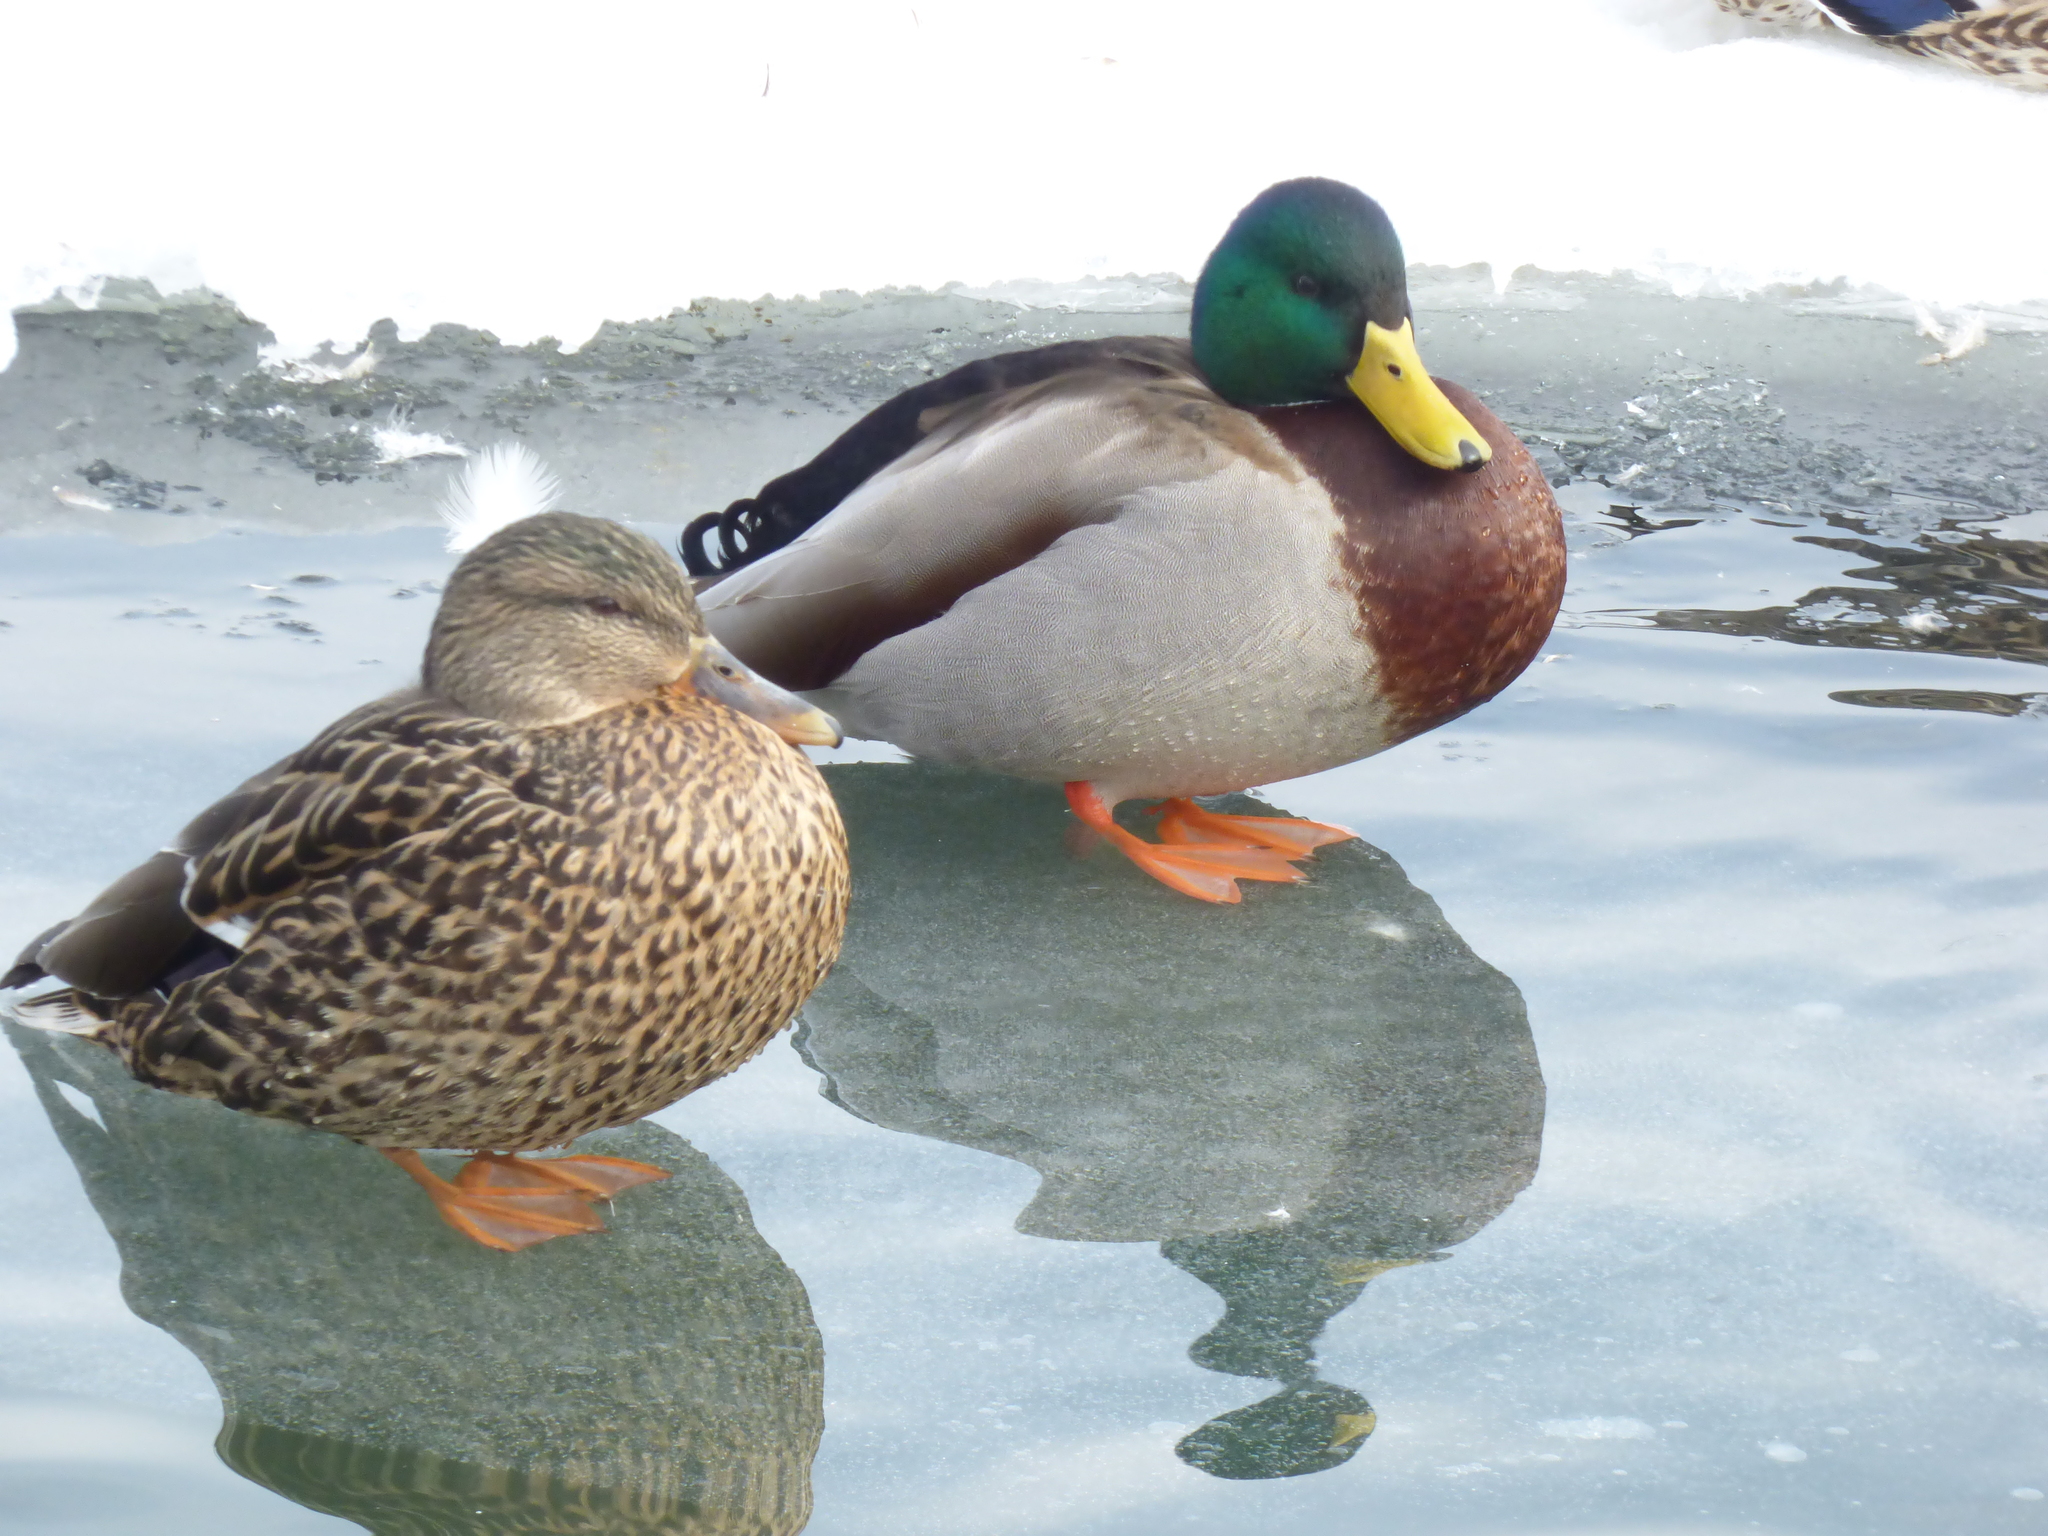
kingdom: Animalia
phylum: Chordata
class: Aves
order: Anseriformes
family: Anatidae
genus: Anas
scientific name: Anas platyrhynchos
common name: Mallard
